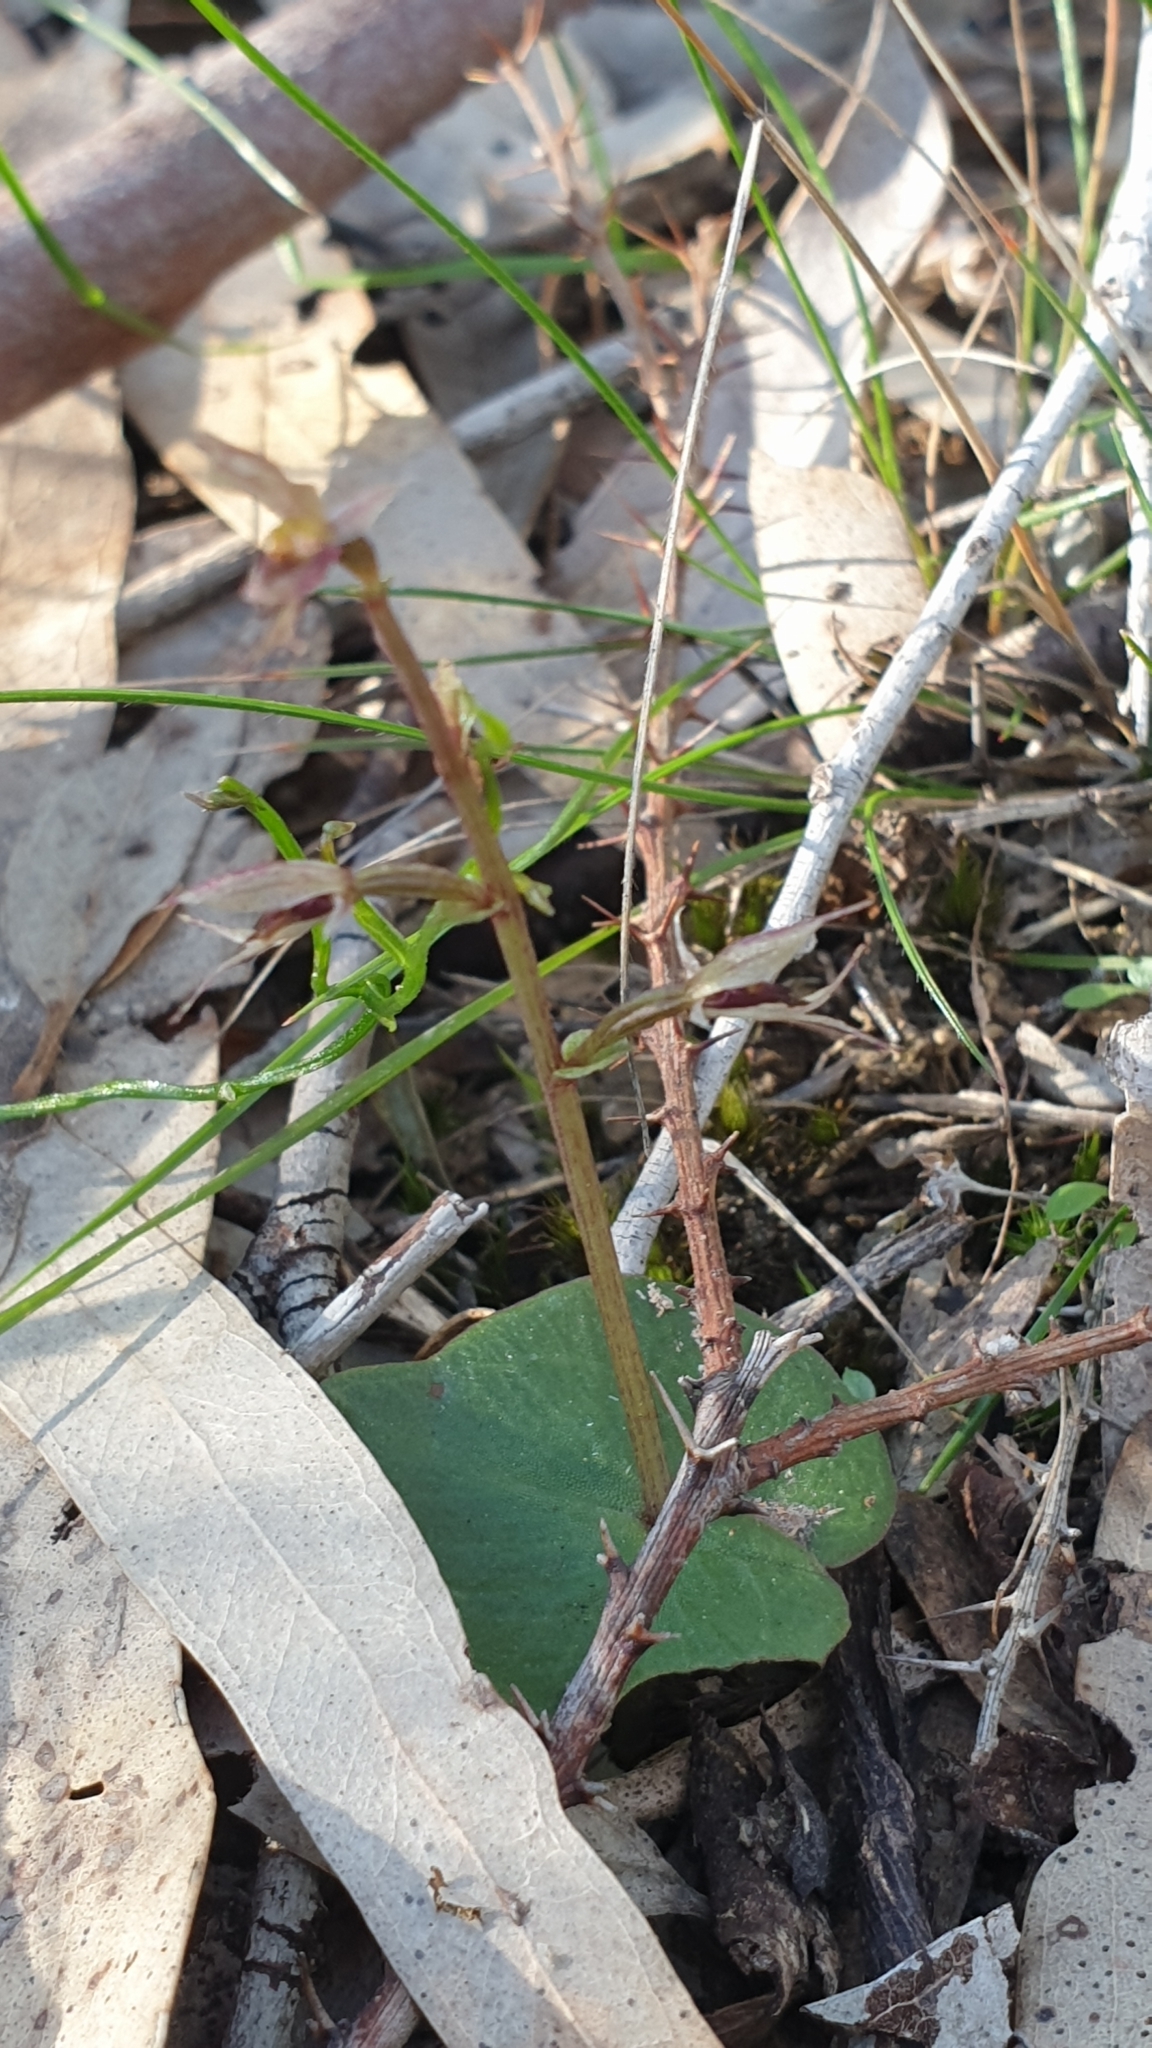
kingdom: Plantae
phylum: Tracheophyta
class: Liliopsida
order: Asparagales
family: Orchidaceae
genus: Acianthus
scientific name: Acianthus pusillus
